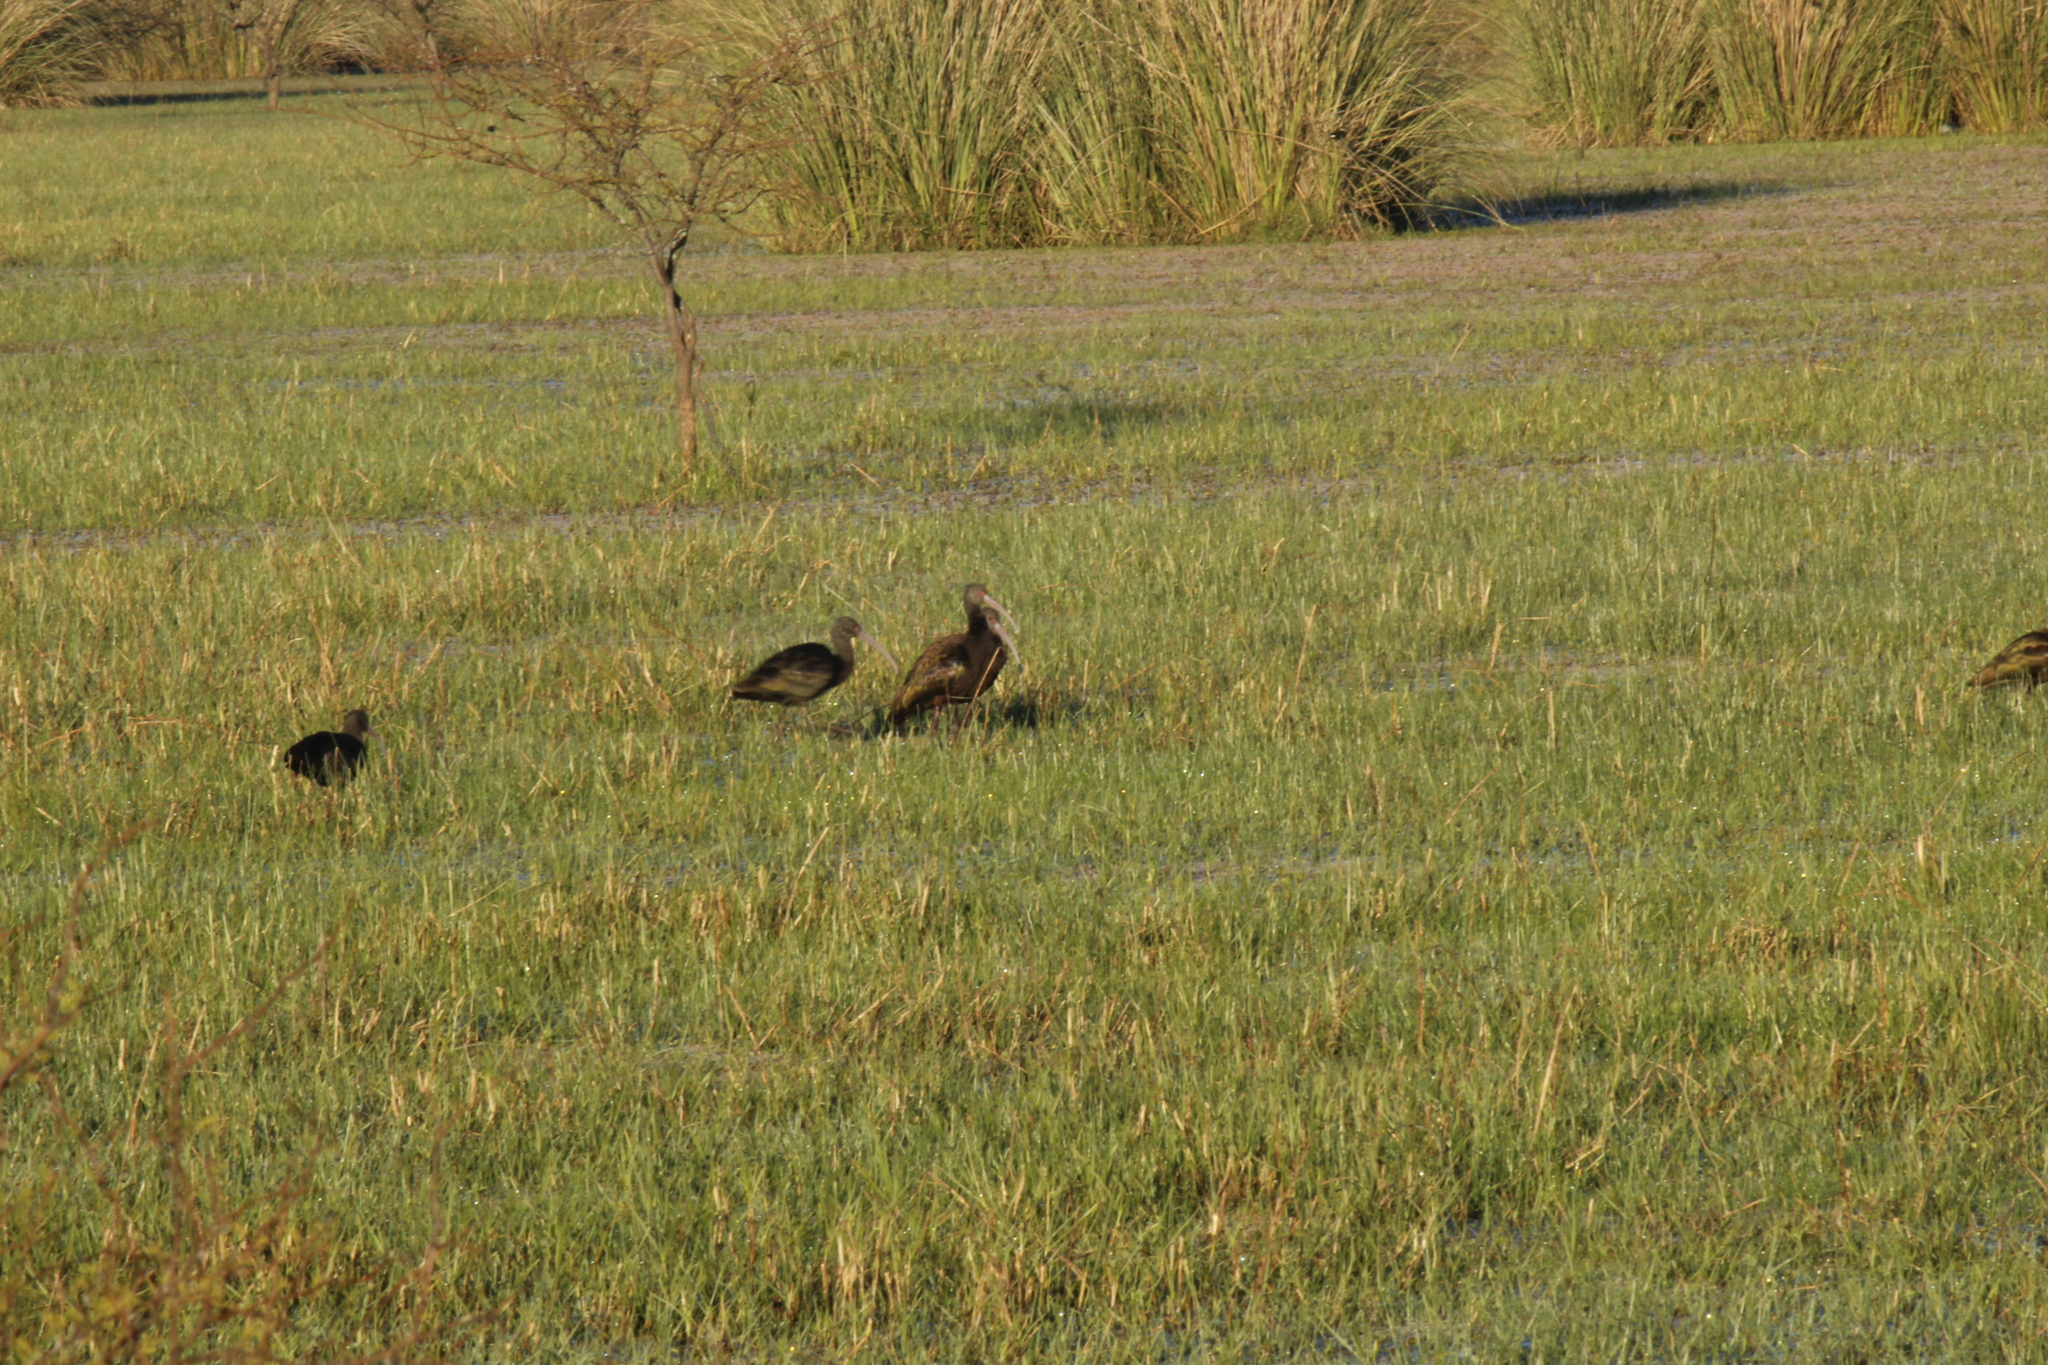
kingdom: Animalia
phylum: Chordata
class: Aves
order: Pelecaniformes
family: Threskiornithidae
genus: Plegadis
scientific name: Plegadis chihi
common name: White-faced ibis
